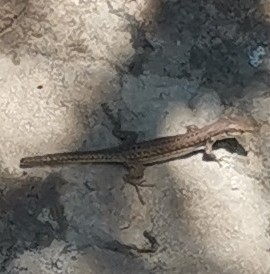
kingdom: Animalia
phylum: Chordata
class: Squamata
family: Lacertidae
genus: Podarcis
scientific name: Podarcis siculus
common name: Italian wall lizard
